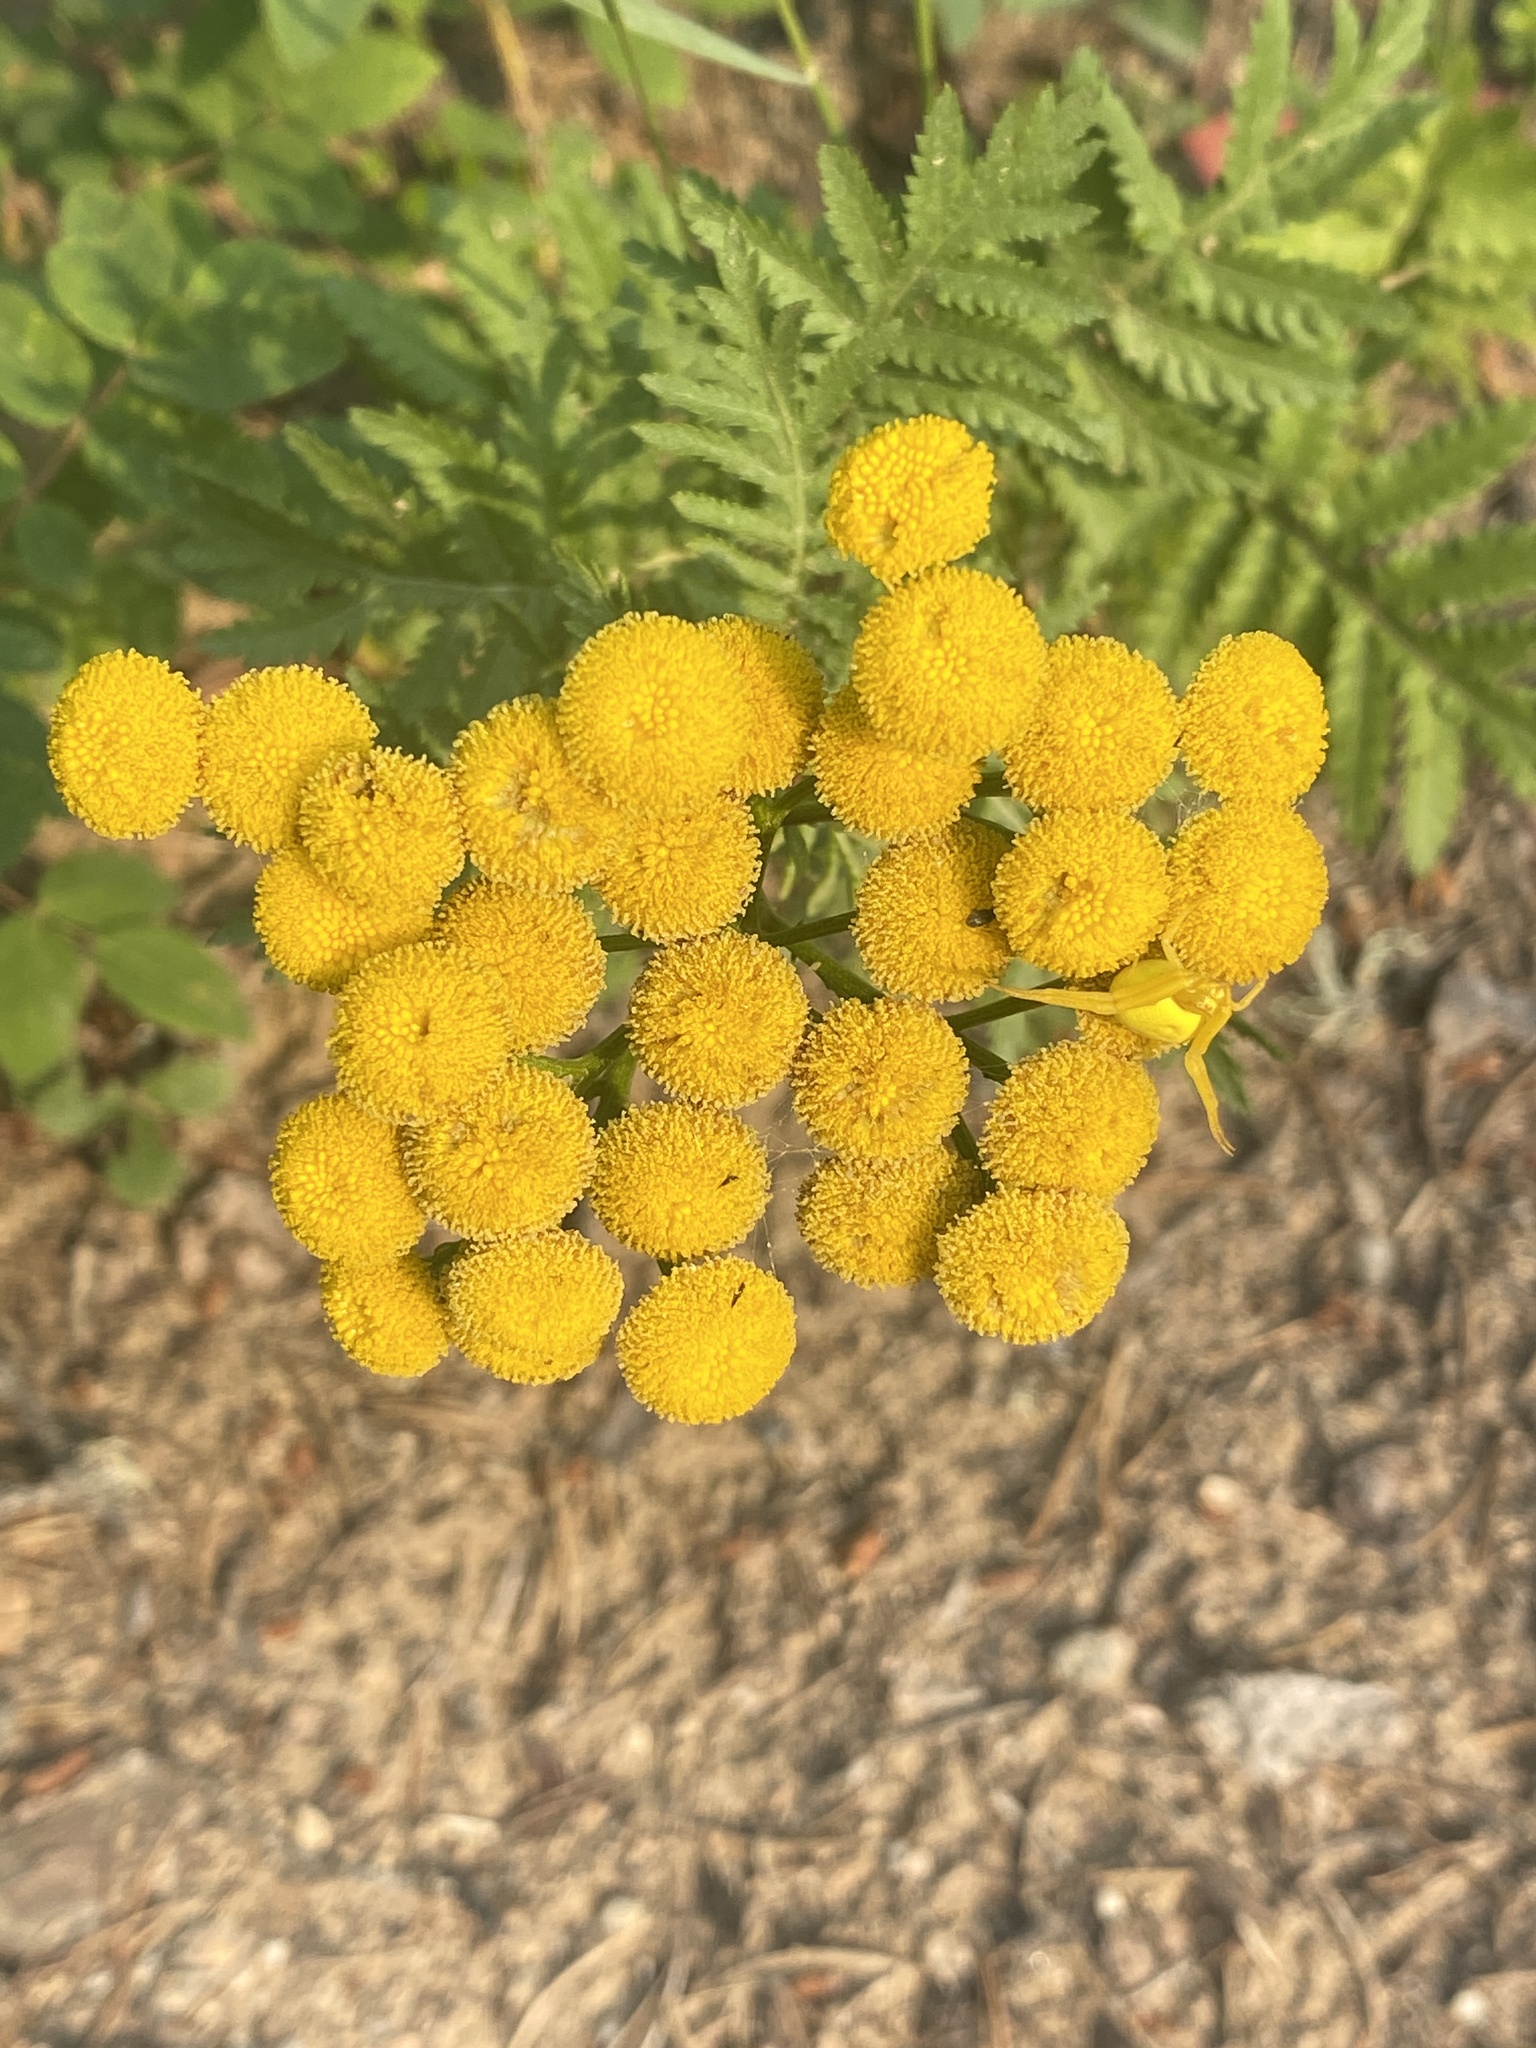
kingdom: Plantae
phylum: Tracheophyta
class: Magnoliopsida
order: Asterales
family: Asteraceae
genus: Tanacetum
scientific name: Tanacetum vulgare
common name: Common tansy
